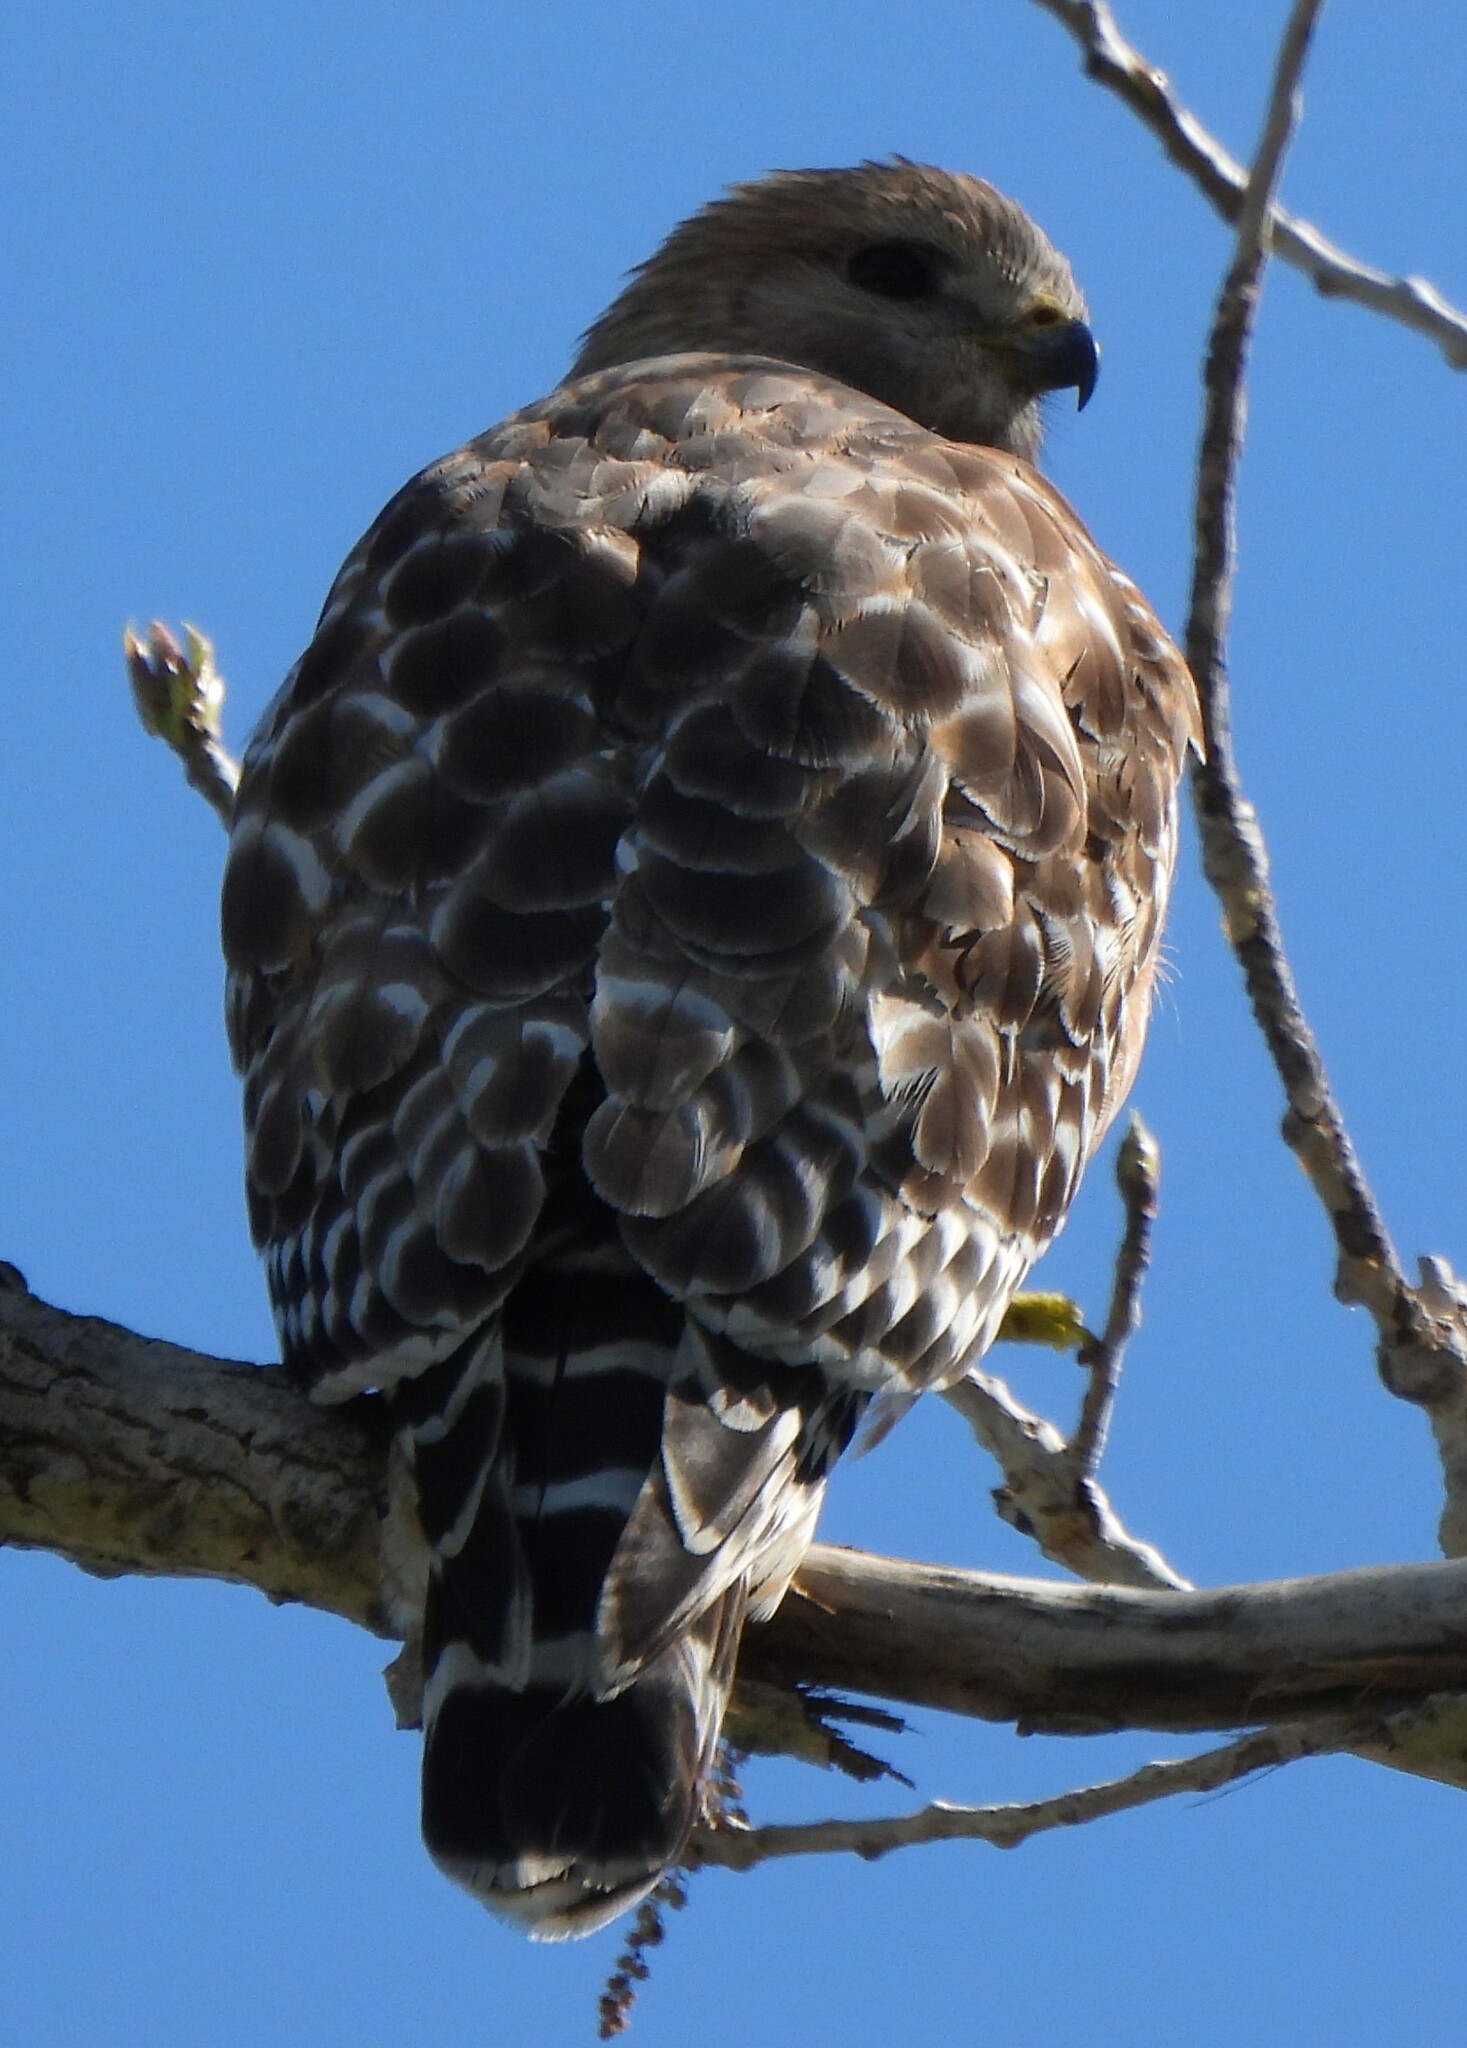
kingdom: Animalia
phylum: Chordata
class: Aves
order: Accipitriformes
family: Accipitridae
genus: Buteo
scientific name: Buteo lineatus
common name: Red-shouldered hawk
